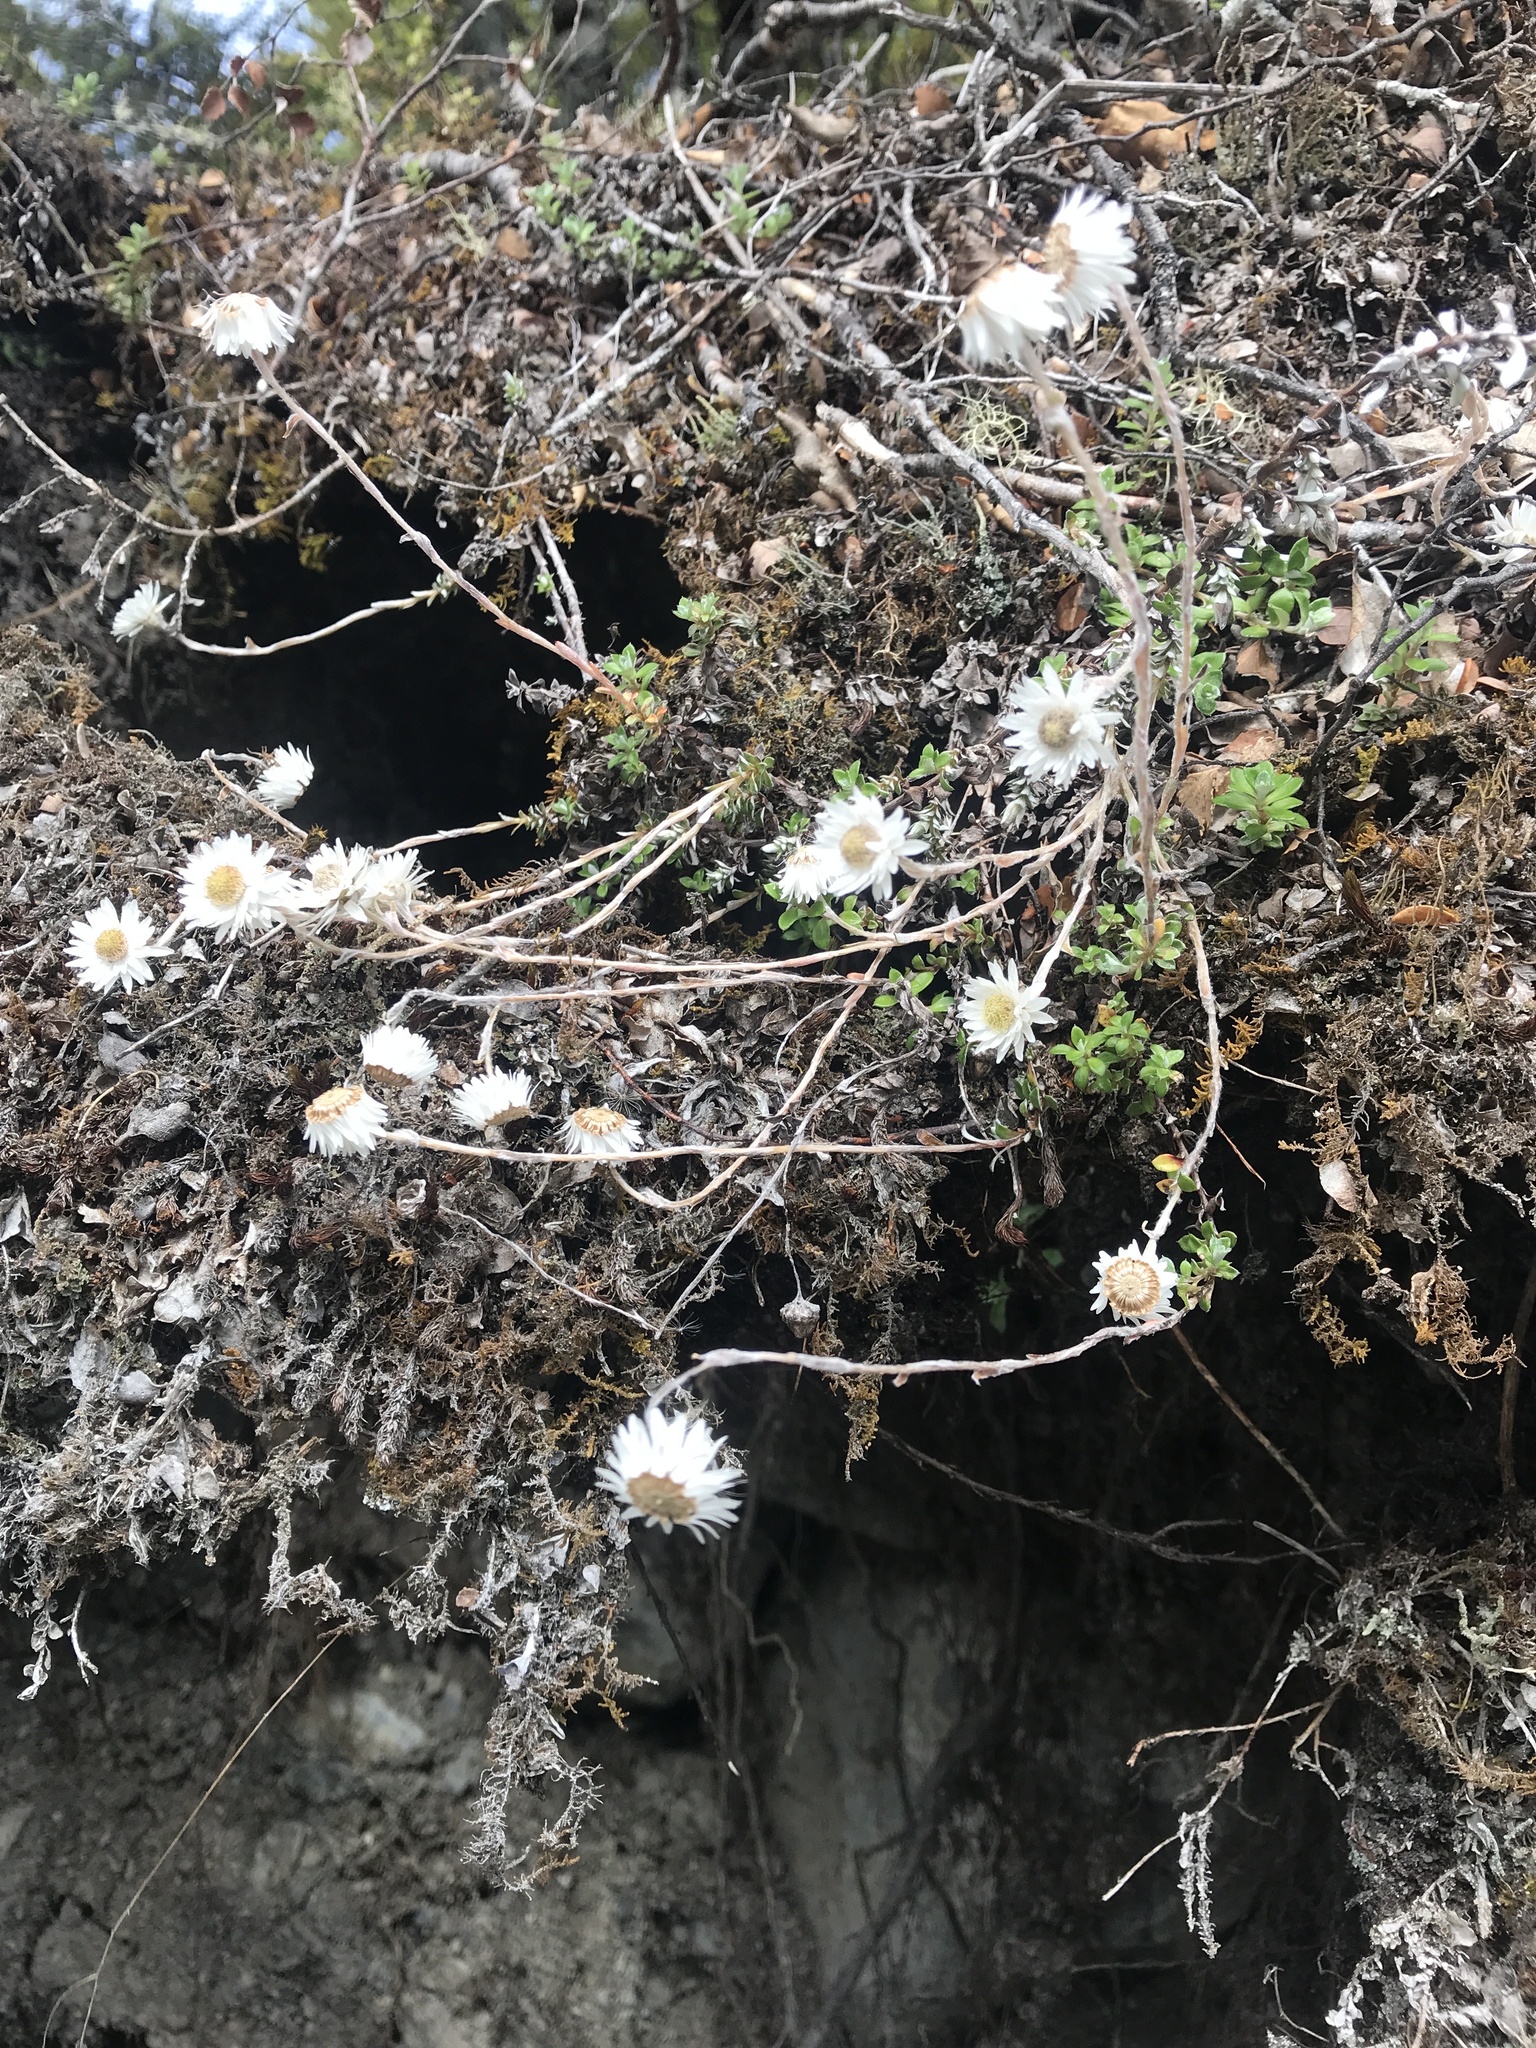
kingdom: Plantae
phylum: Tracheophyta
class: Magnoliopsida
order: Asterales
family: Asteraceae
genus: Anaphalioides
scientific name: Anaphalioides bellidioides
